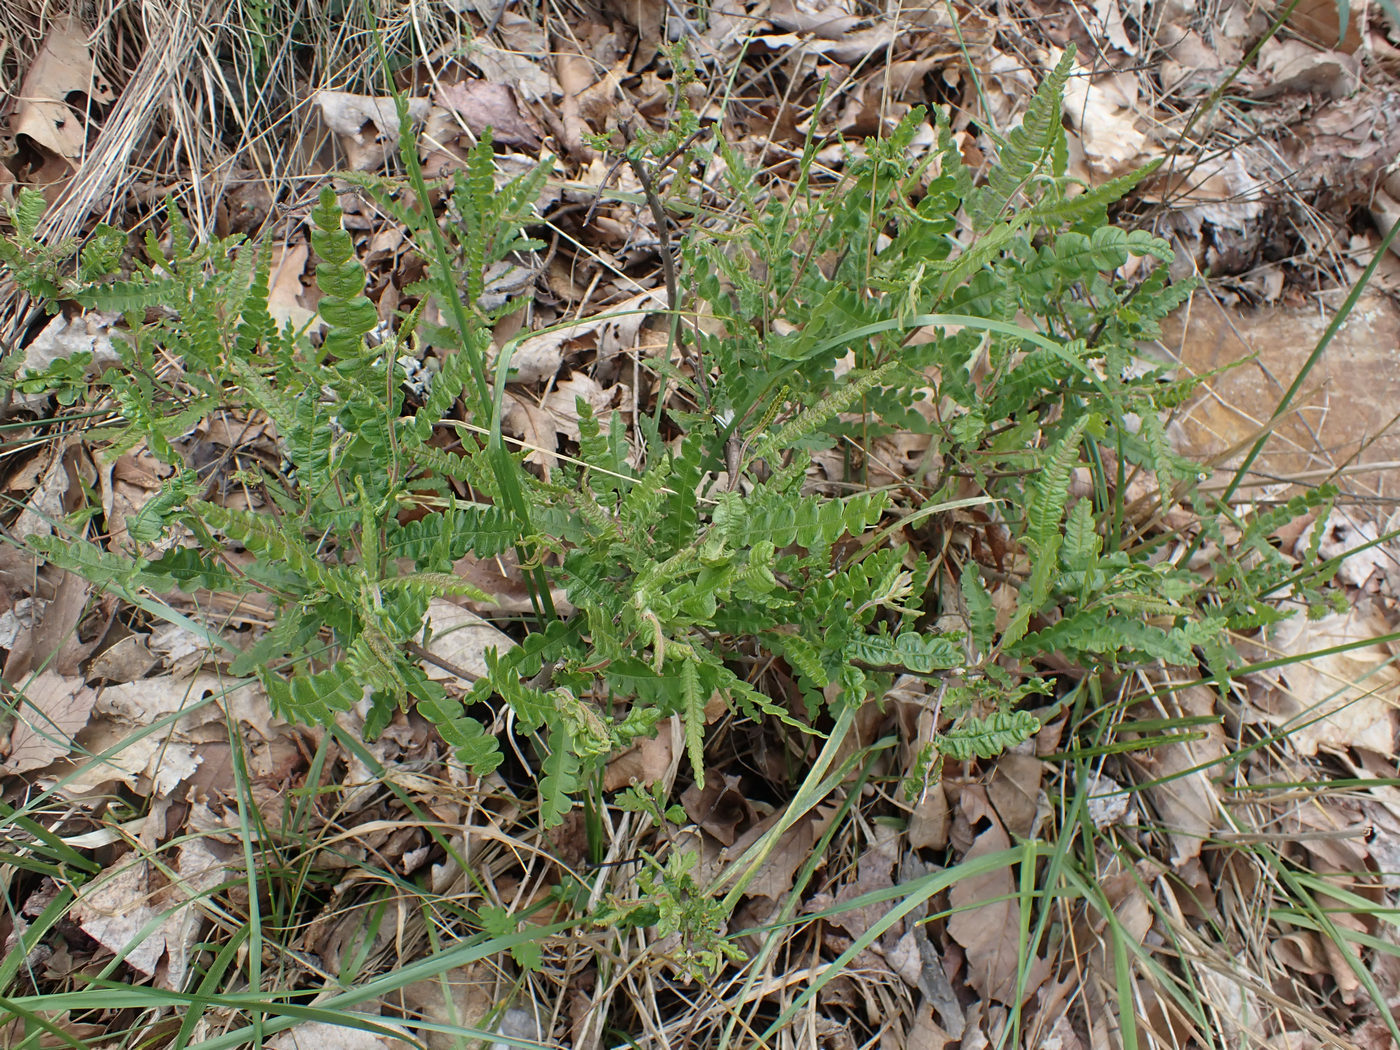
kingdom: Plantae
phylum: Tracheophyta
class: Magnoliopsida
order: Fagales
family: Myricaceae
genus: Comptonia
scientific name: Comptonia peregrina
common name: Sweet-fern
